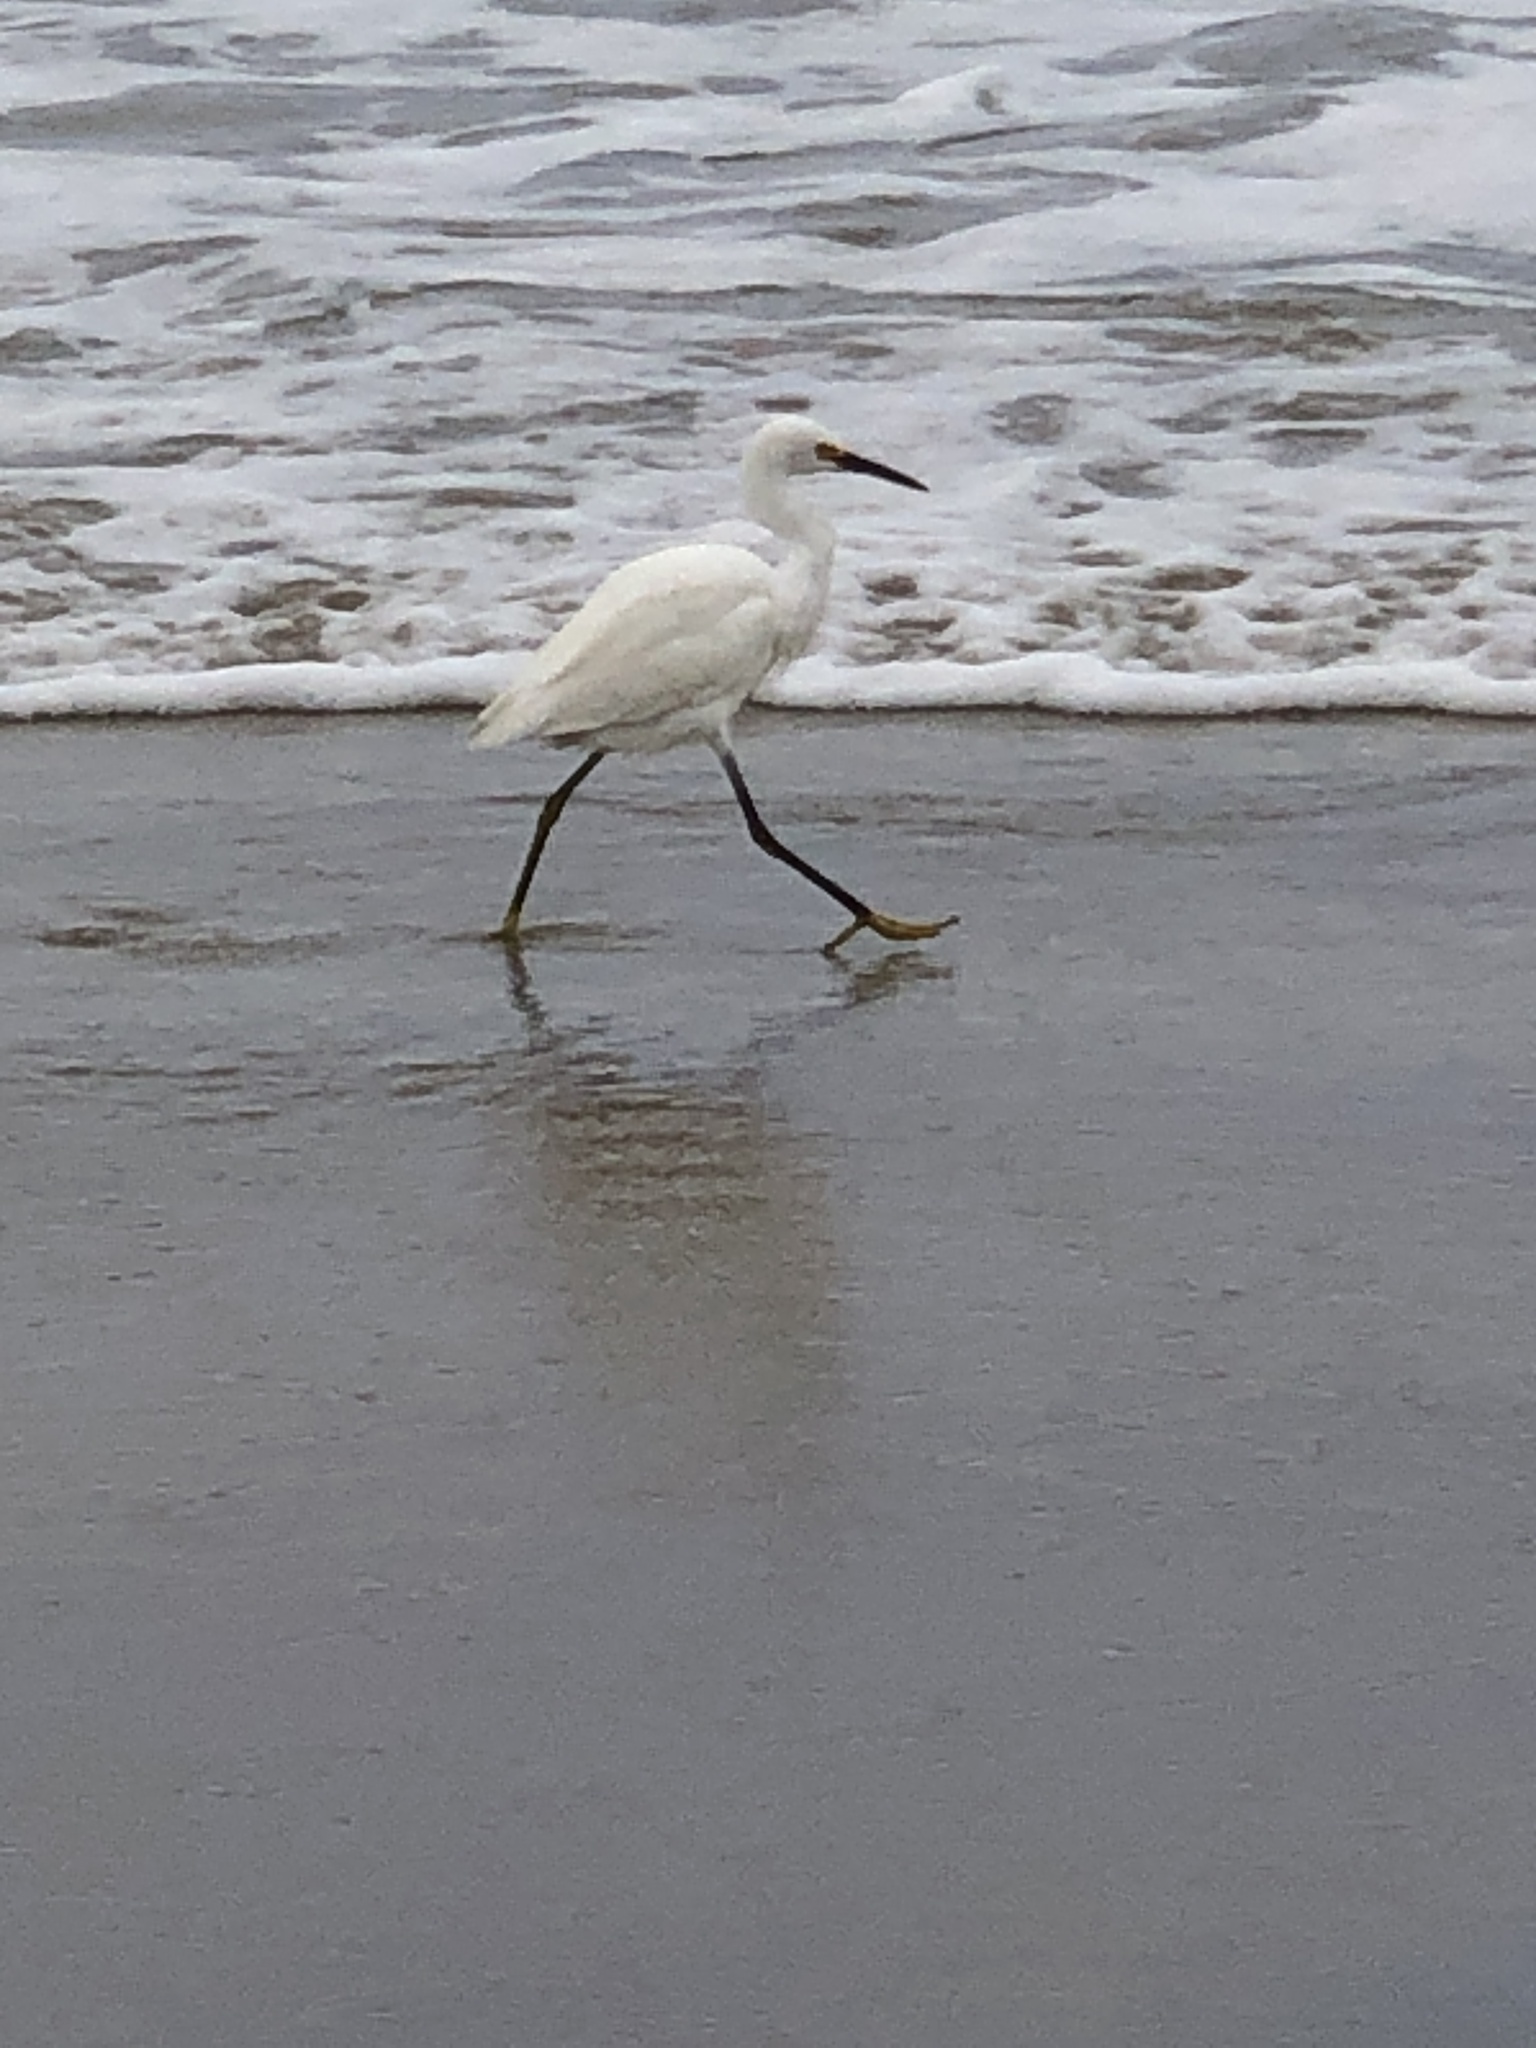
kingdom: Animalia
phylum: Chordata
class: Aves
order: Pelecaniformes
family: Ardeidae
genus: Egretta
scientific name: Egretta thula
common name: Snowy egret
